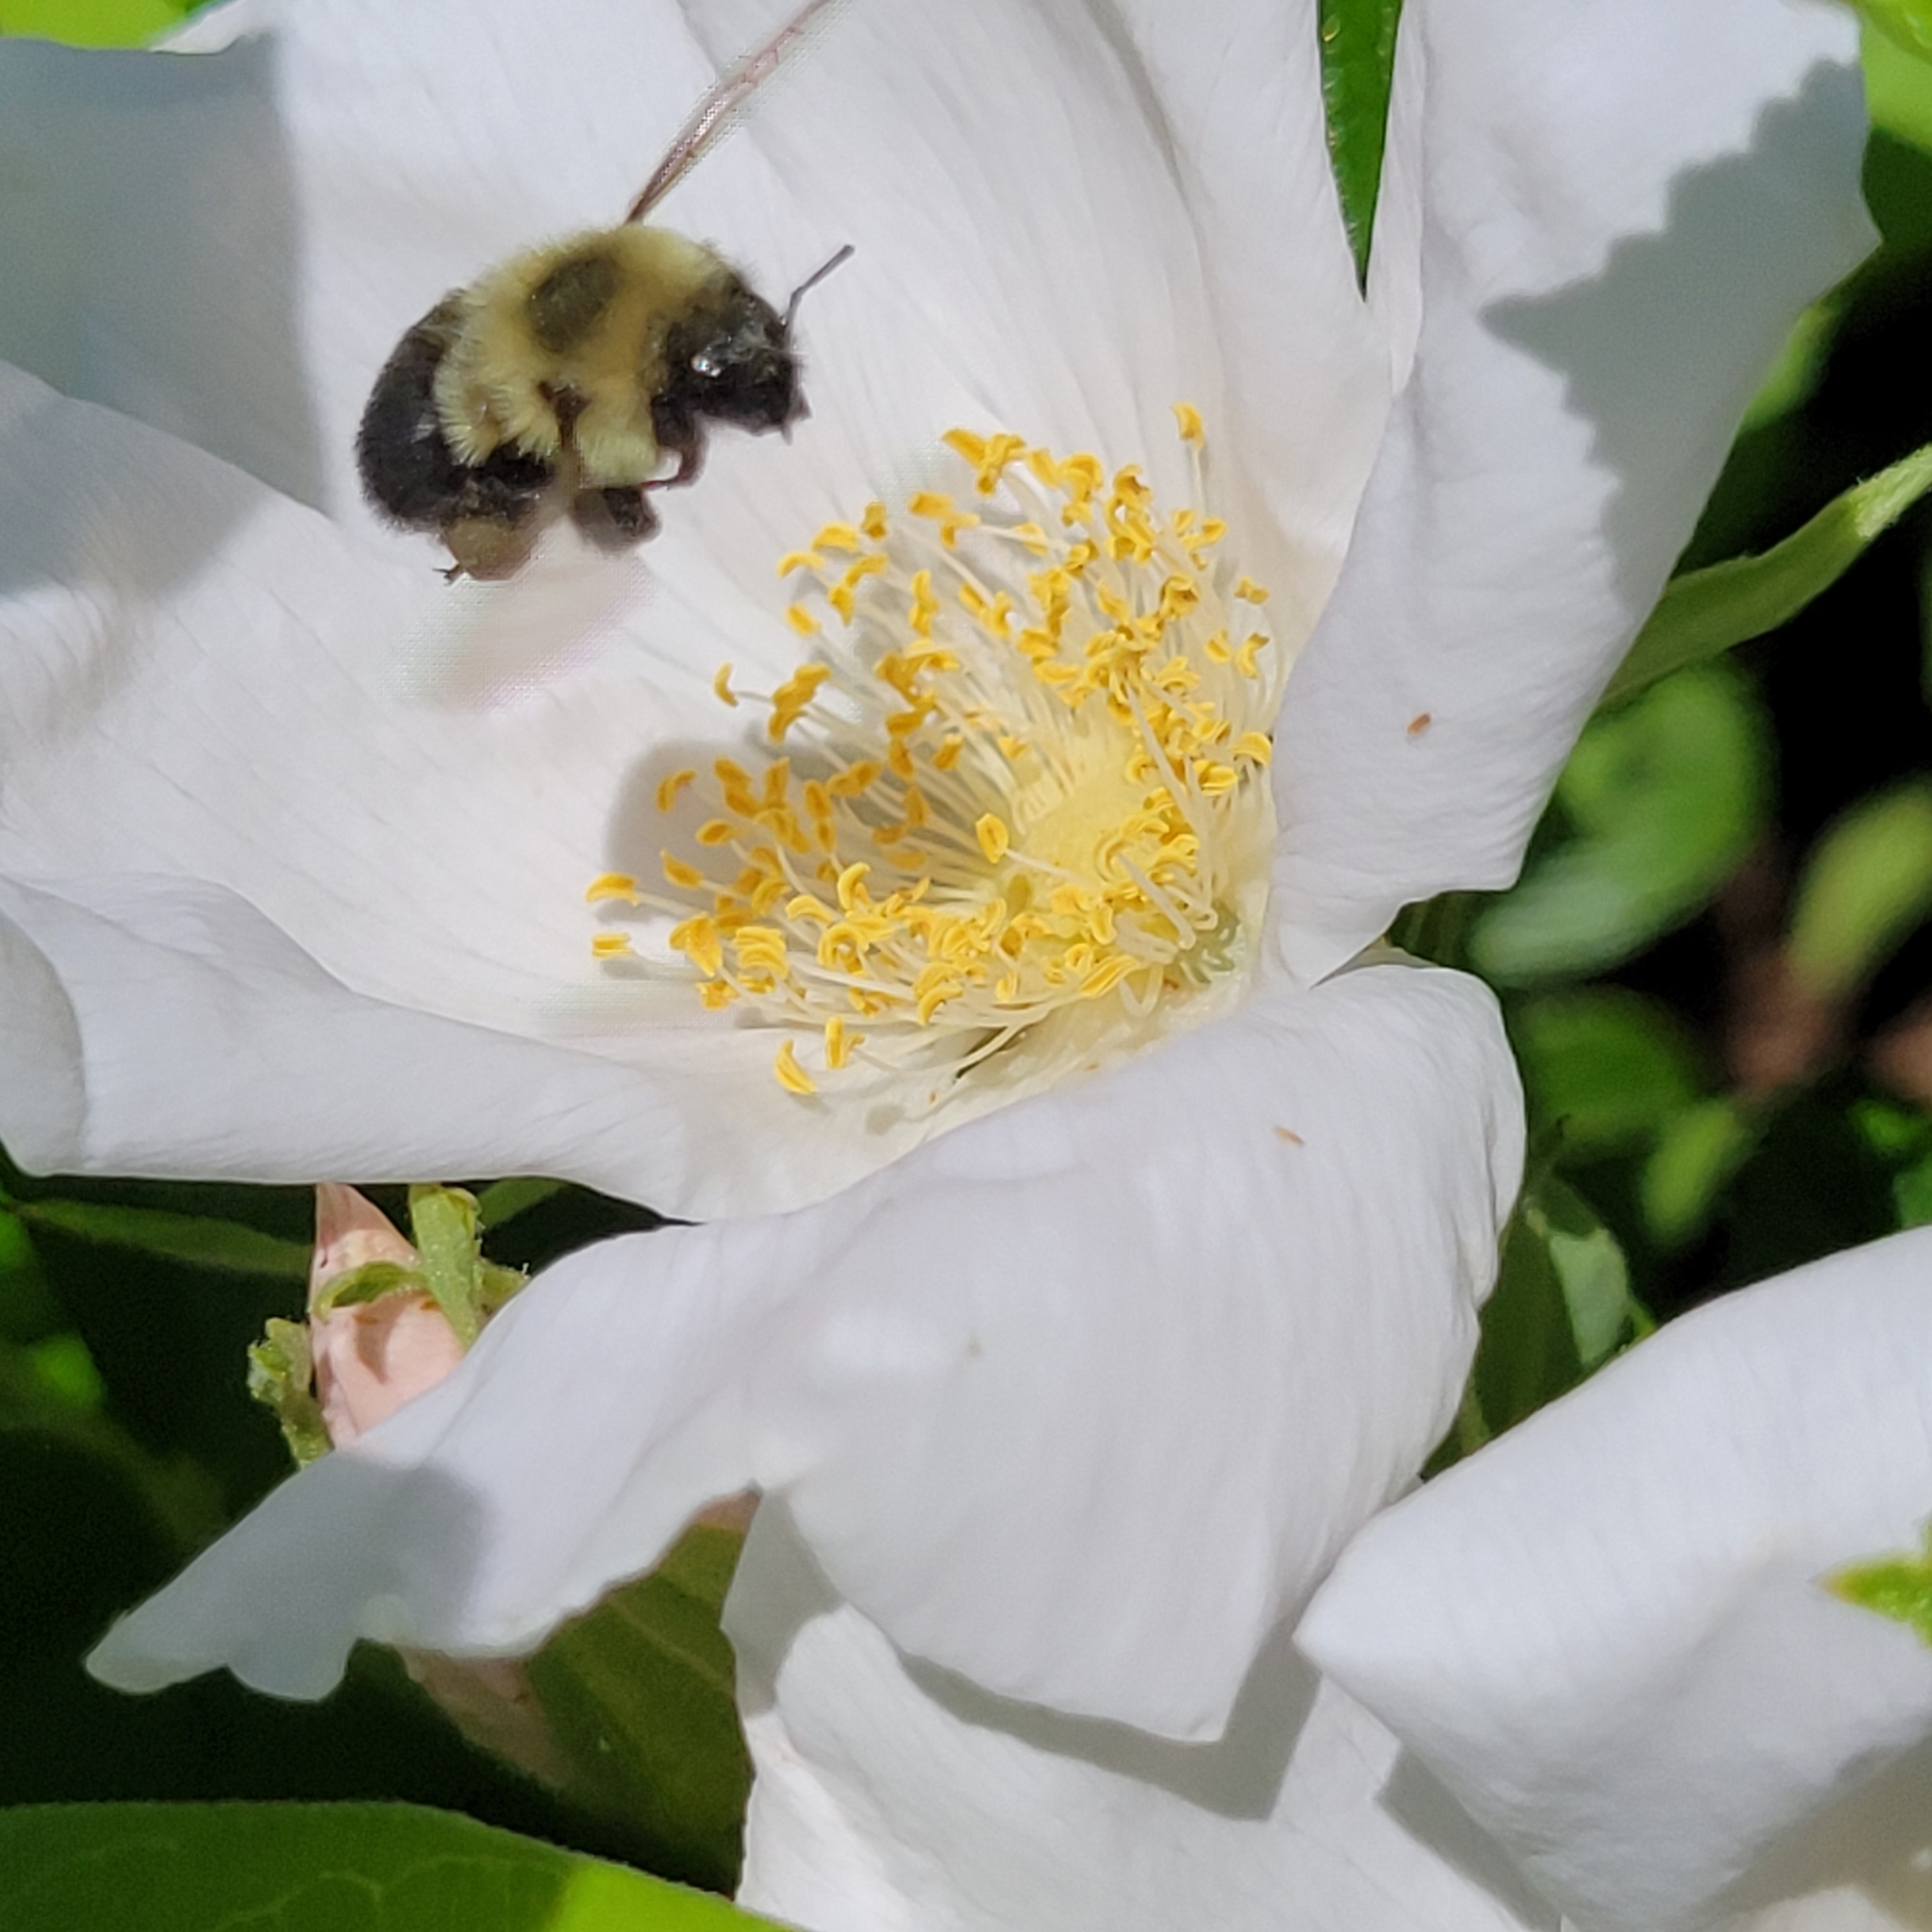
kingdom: Animalia
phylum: Arthropoda
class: Insecta
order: Hymenoptera
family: Apidae
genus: Bombus
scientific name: Bombus impatiens
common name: Common eastern bumble bee
